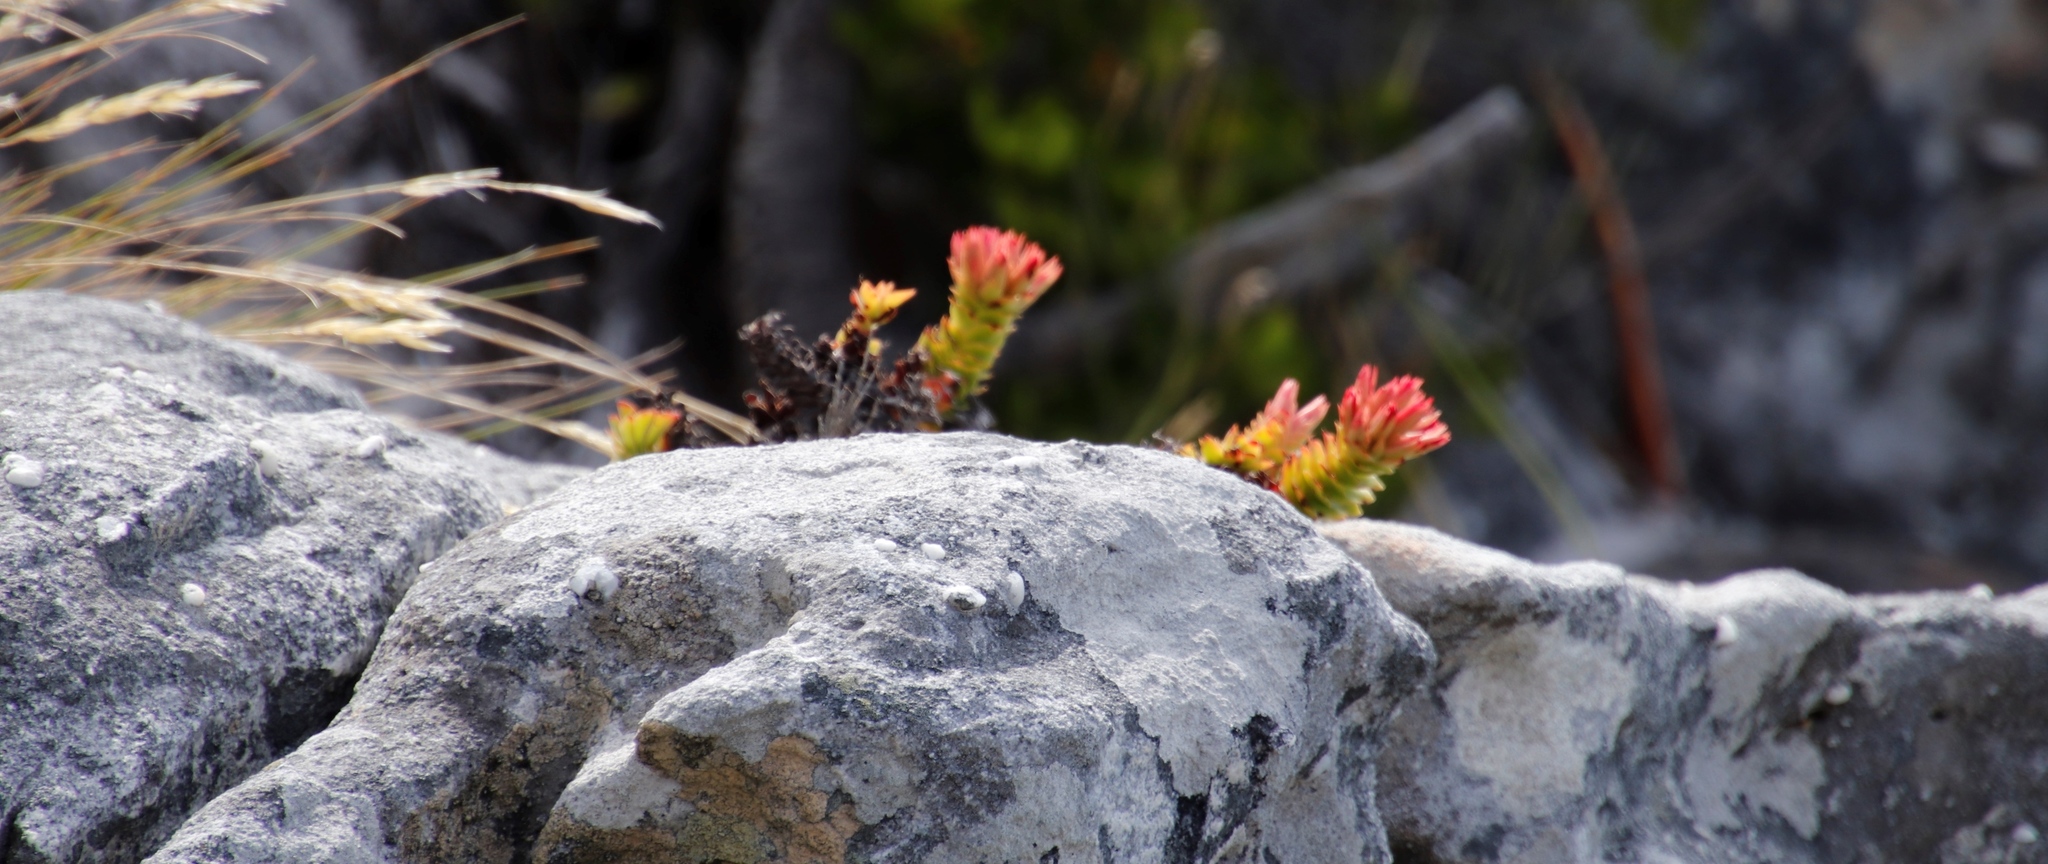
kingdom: Plantae
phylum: Tracheophyta
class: Magnoliopsida
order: Saxifragales
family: Crassulaceae
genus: Crassula
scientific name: Crassula coccinea
